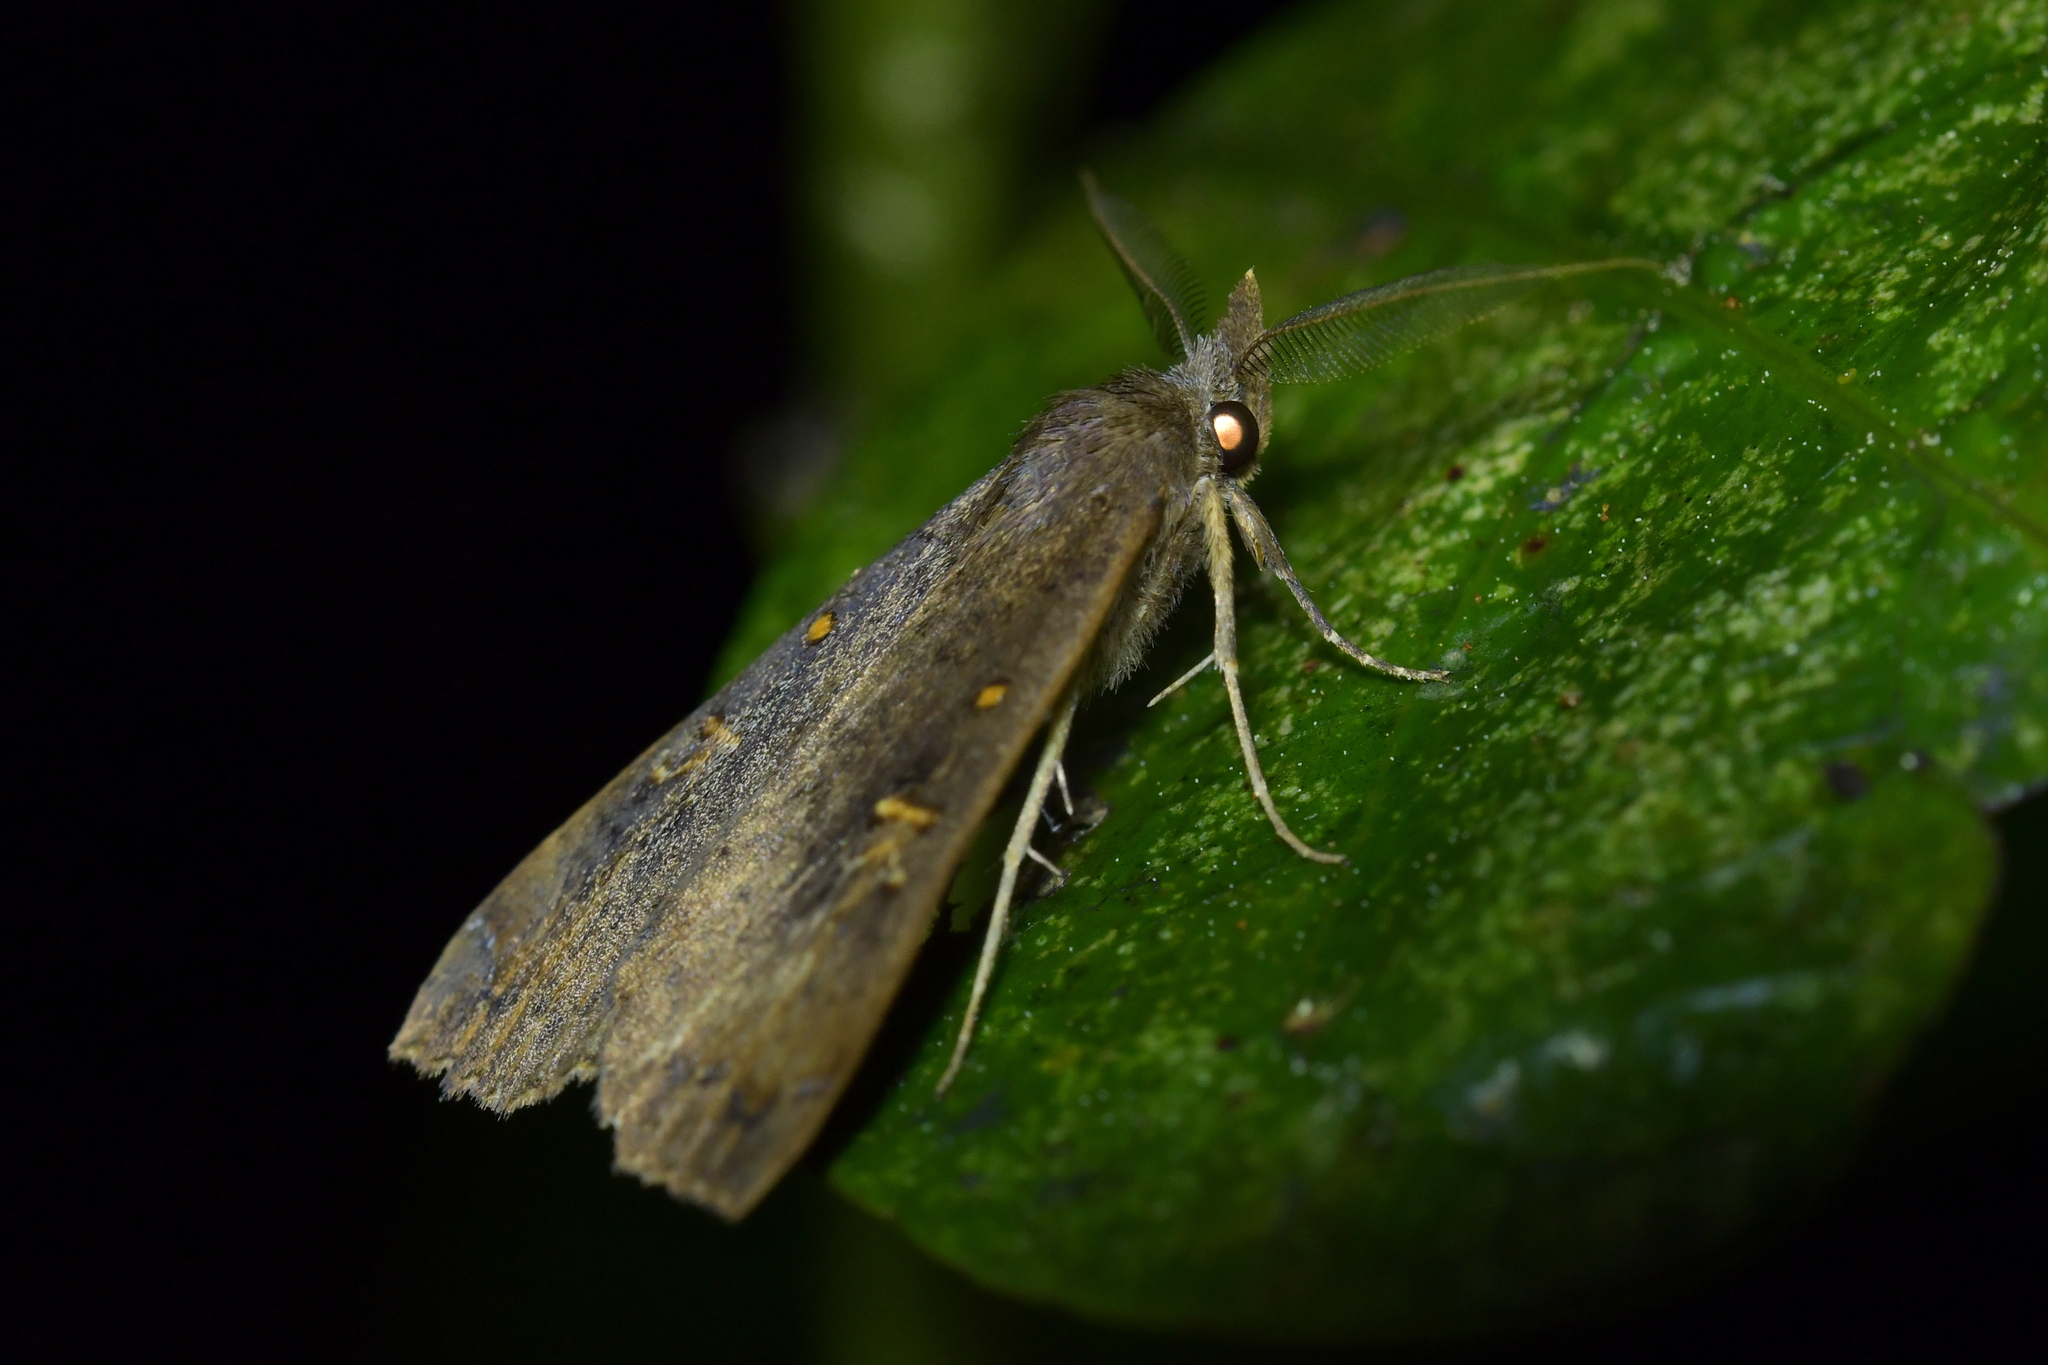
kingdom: Animalia
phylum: Arthropoda
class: Insecta
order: Lepidoptera
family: Erebidae
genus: Rhapsa
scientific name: Rhapsa scotosialis
